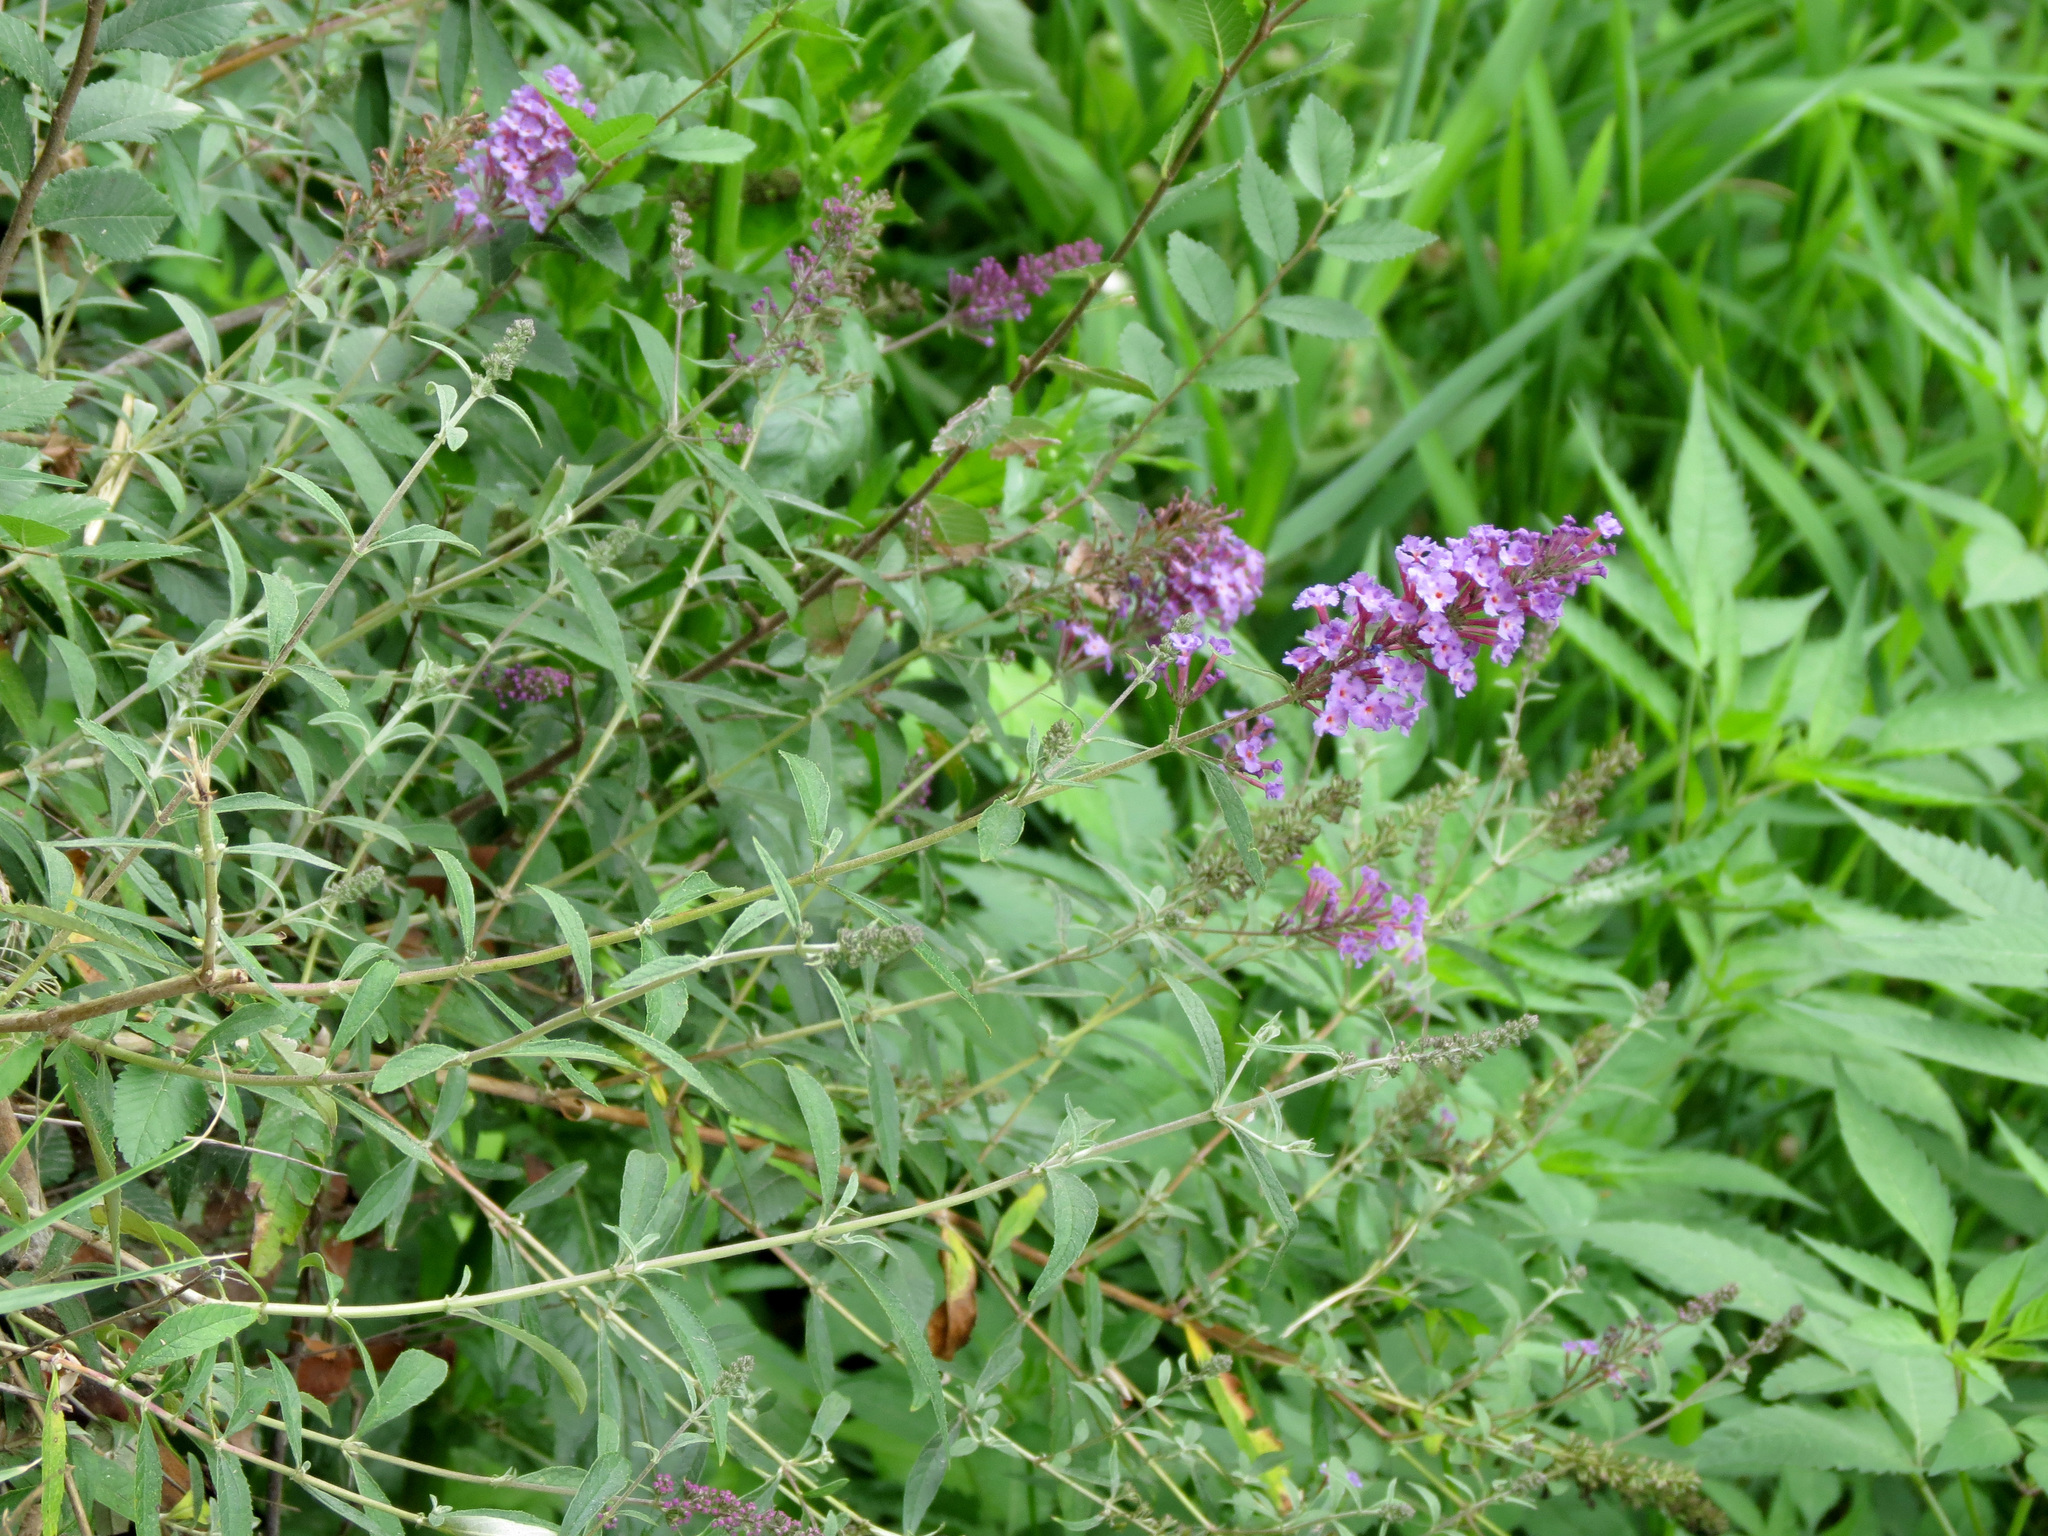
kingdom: Plantae
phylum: Tracheophyta
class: Magnoliopsida
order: Lamiales
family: Scrophulariaceae
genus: Buddleja
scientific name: Buddleja davidii
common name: Butterfly-bush
